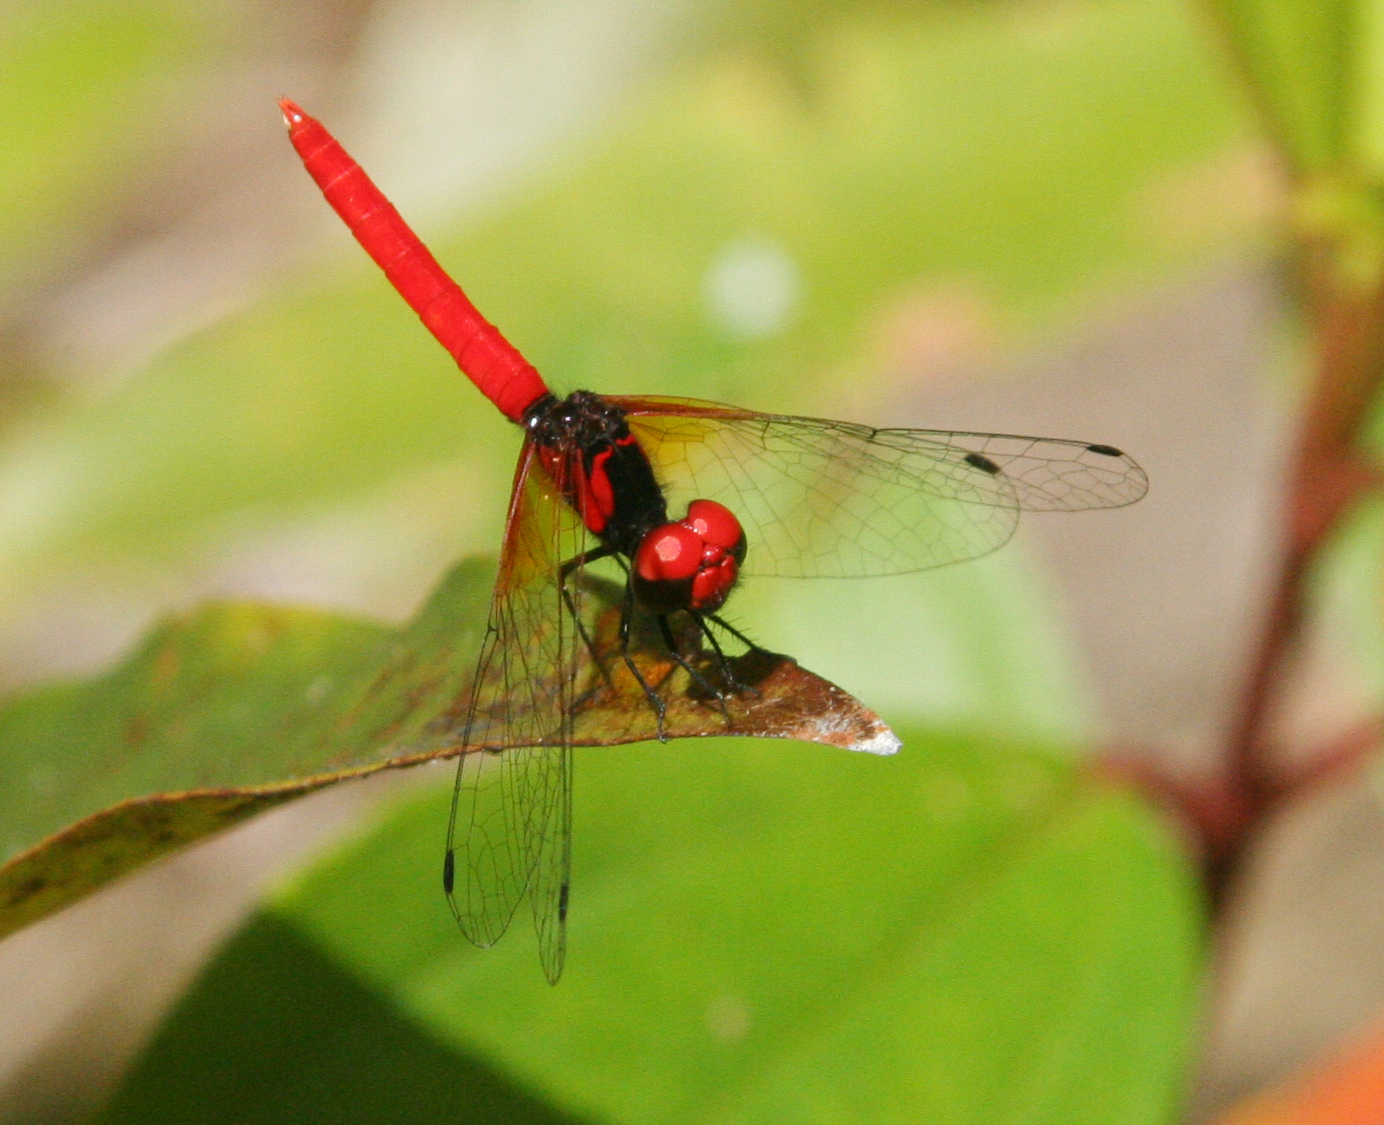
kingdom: Animalia
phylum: Arthropoda
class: Insecta
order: Odonata
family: Libellulidae
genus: Nannophya
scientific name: Nannophya pygmaea
